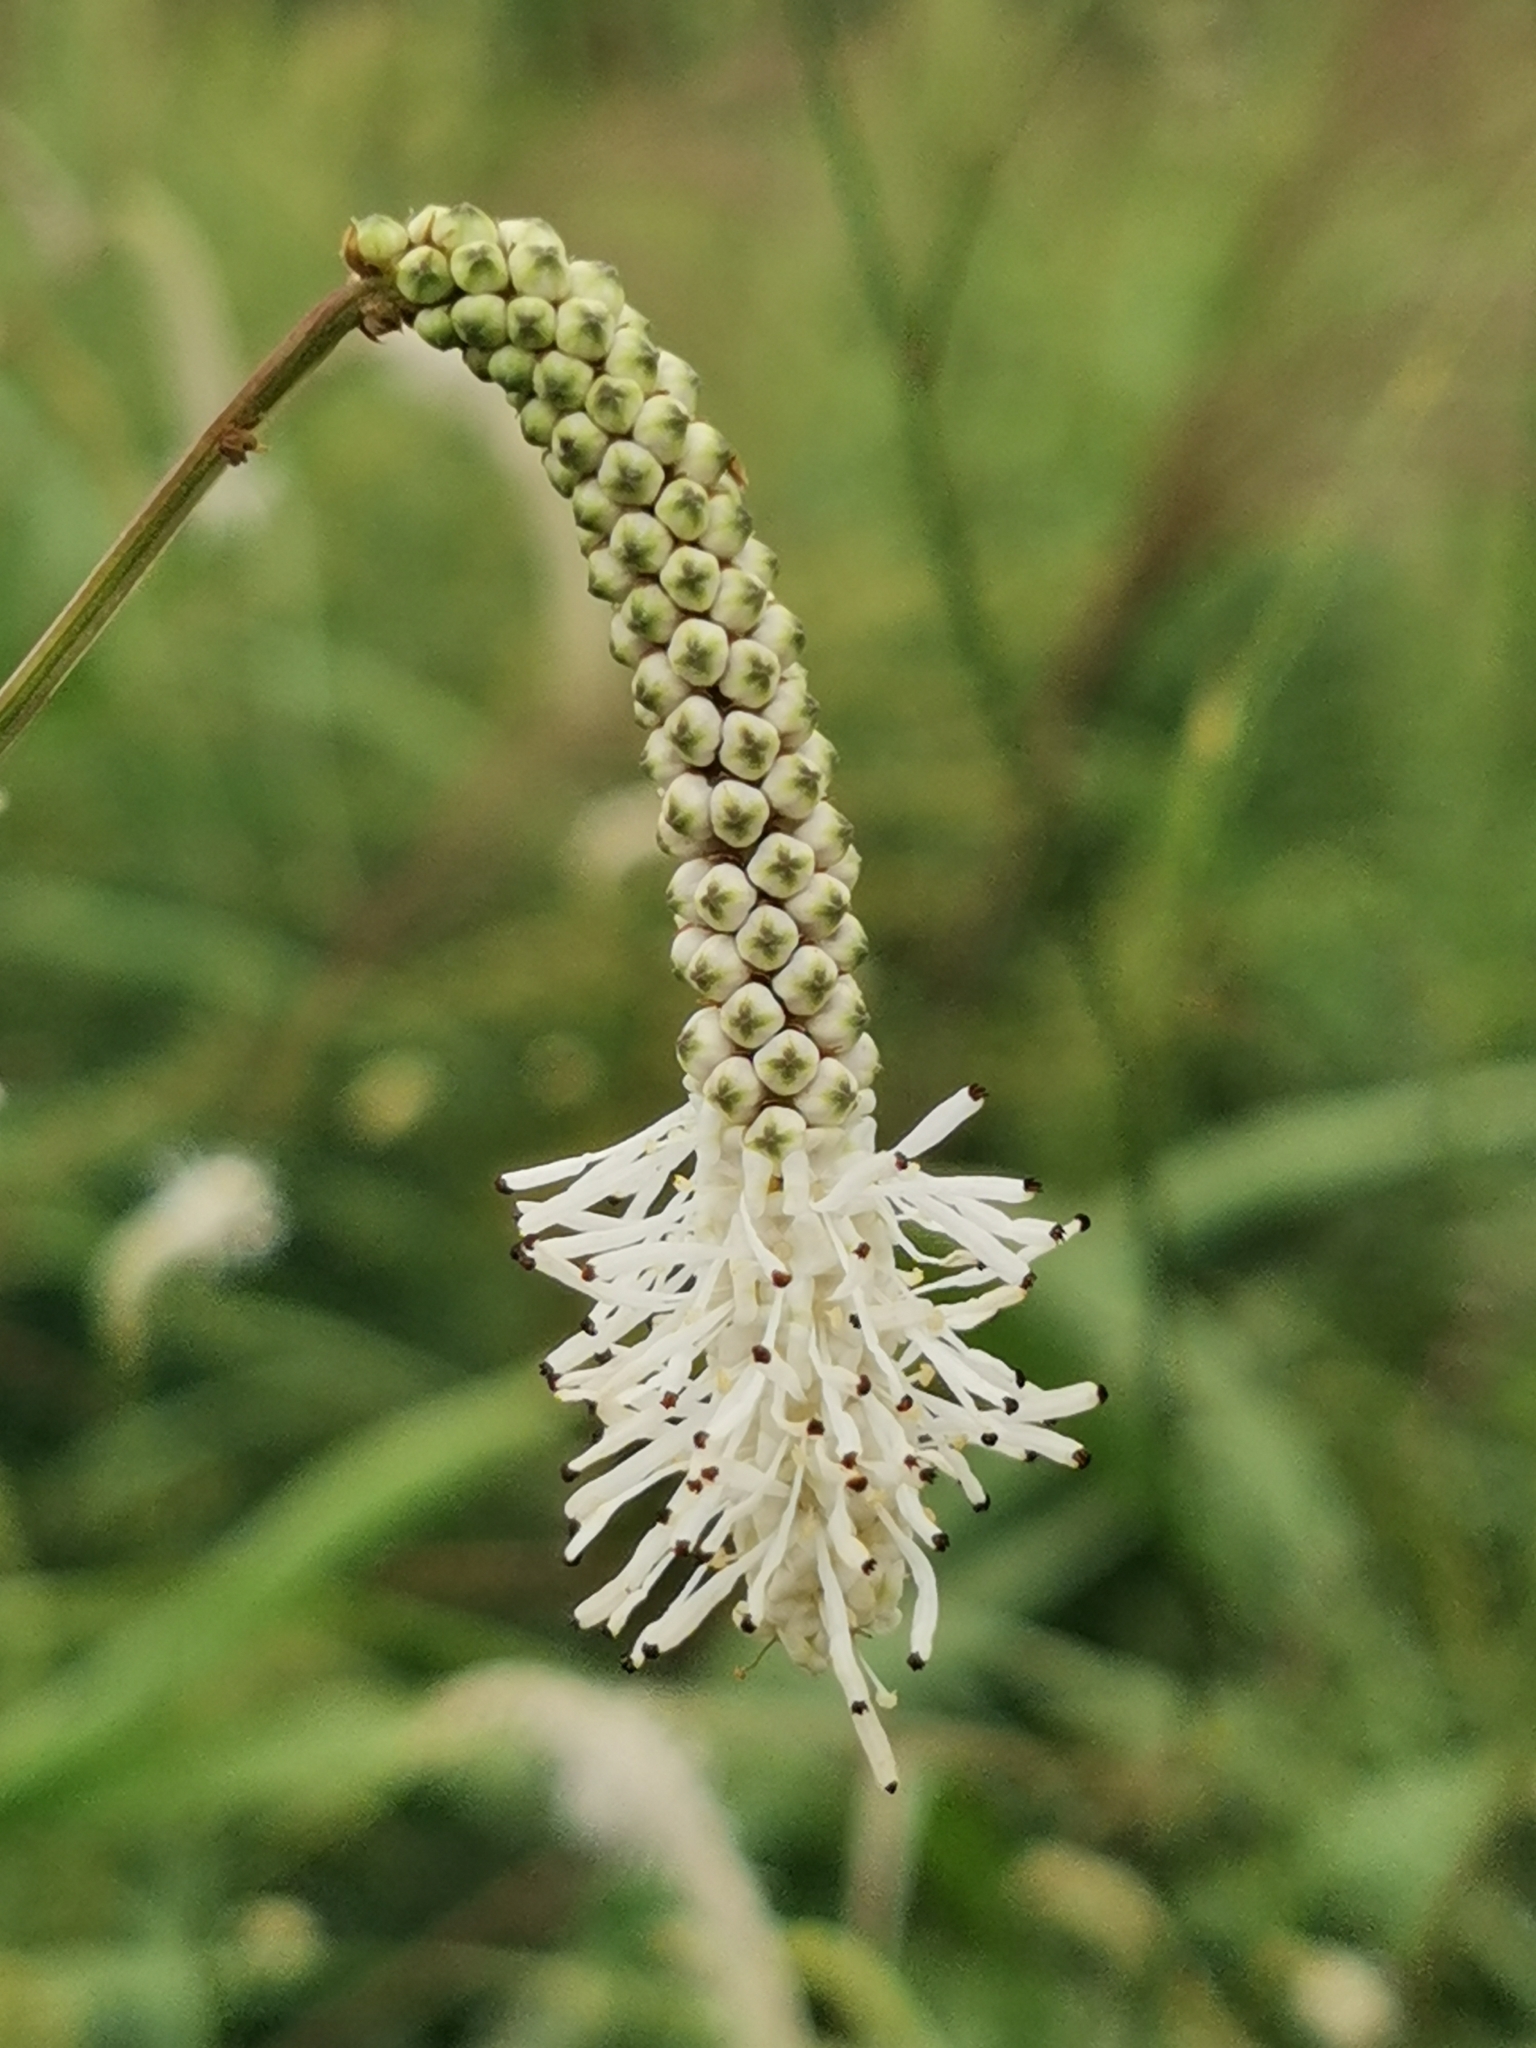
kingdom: Plantae
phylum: Tracheophyta
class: Magnoliopsida
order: Rosales
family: Rosaceae
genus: Poterium
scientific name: Poterium tenuifolium
